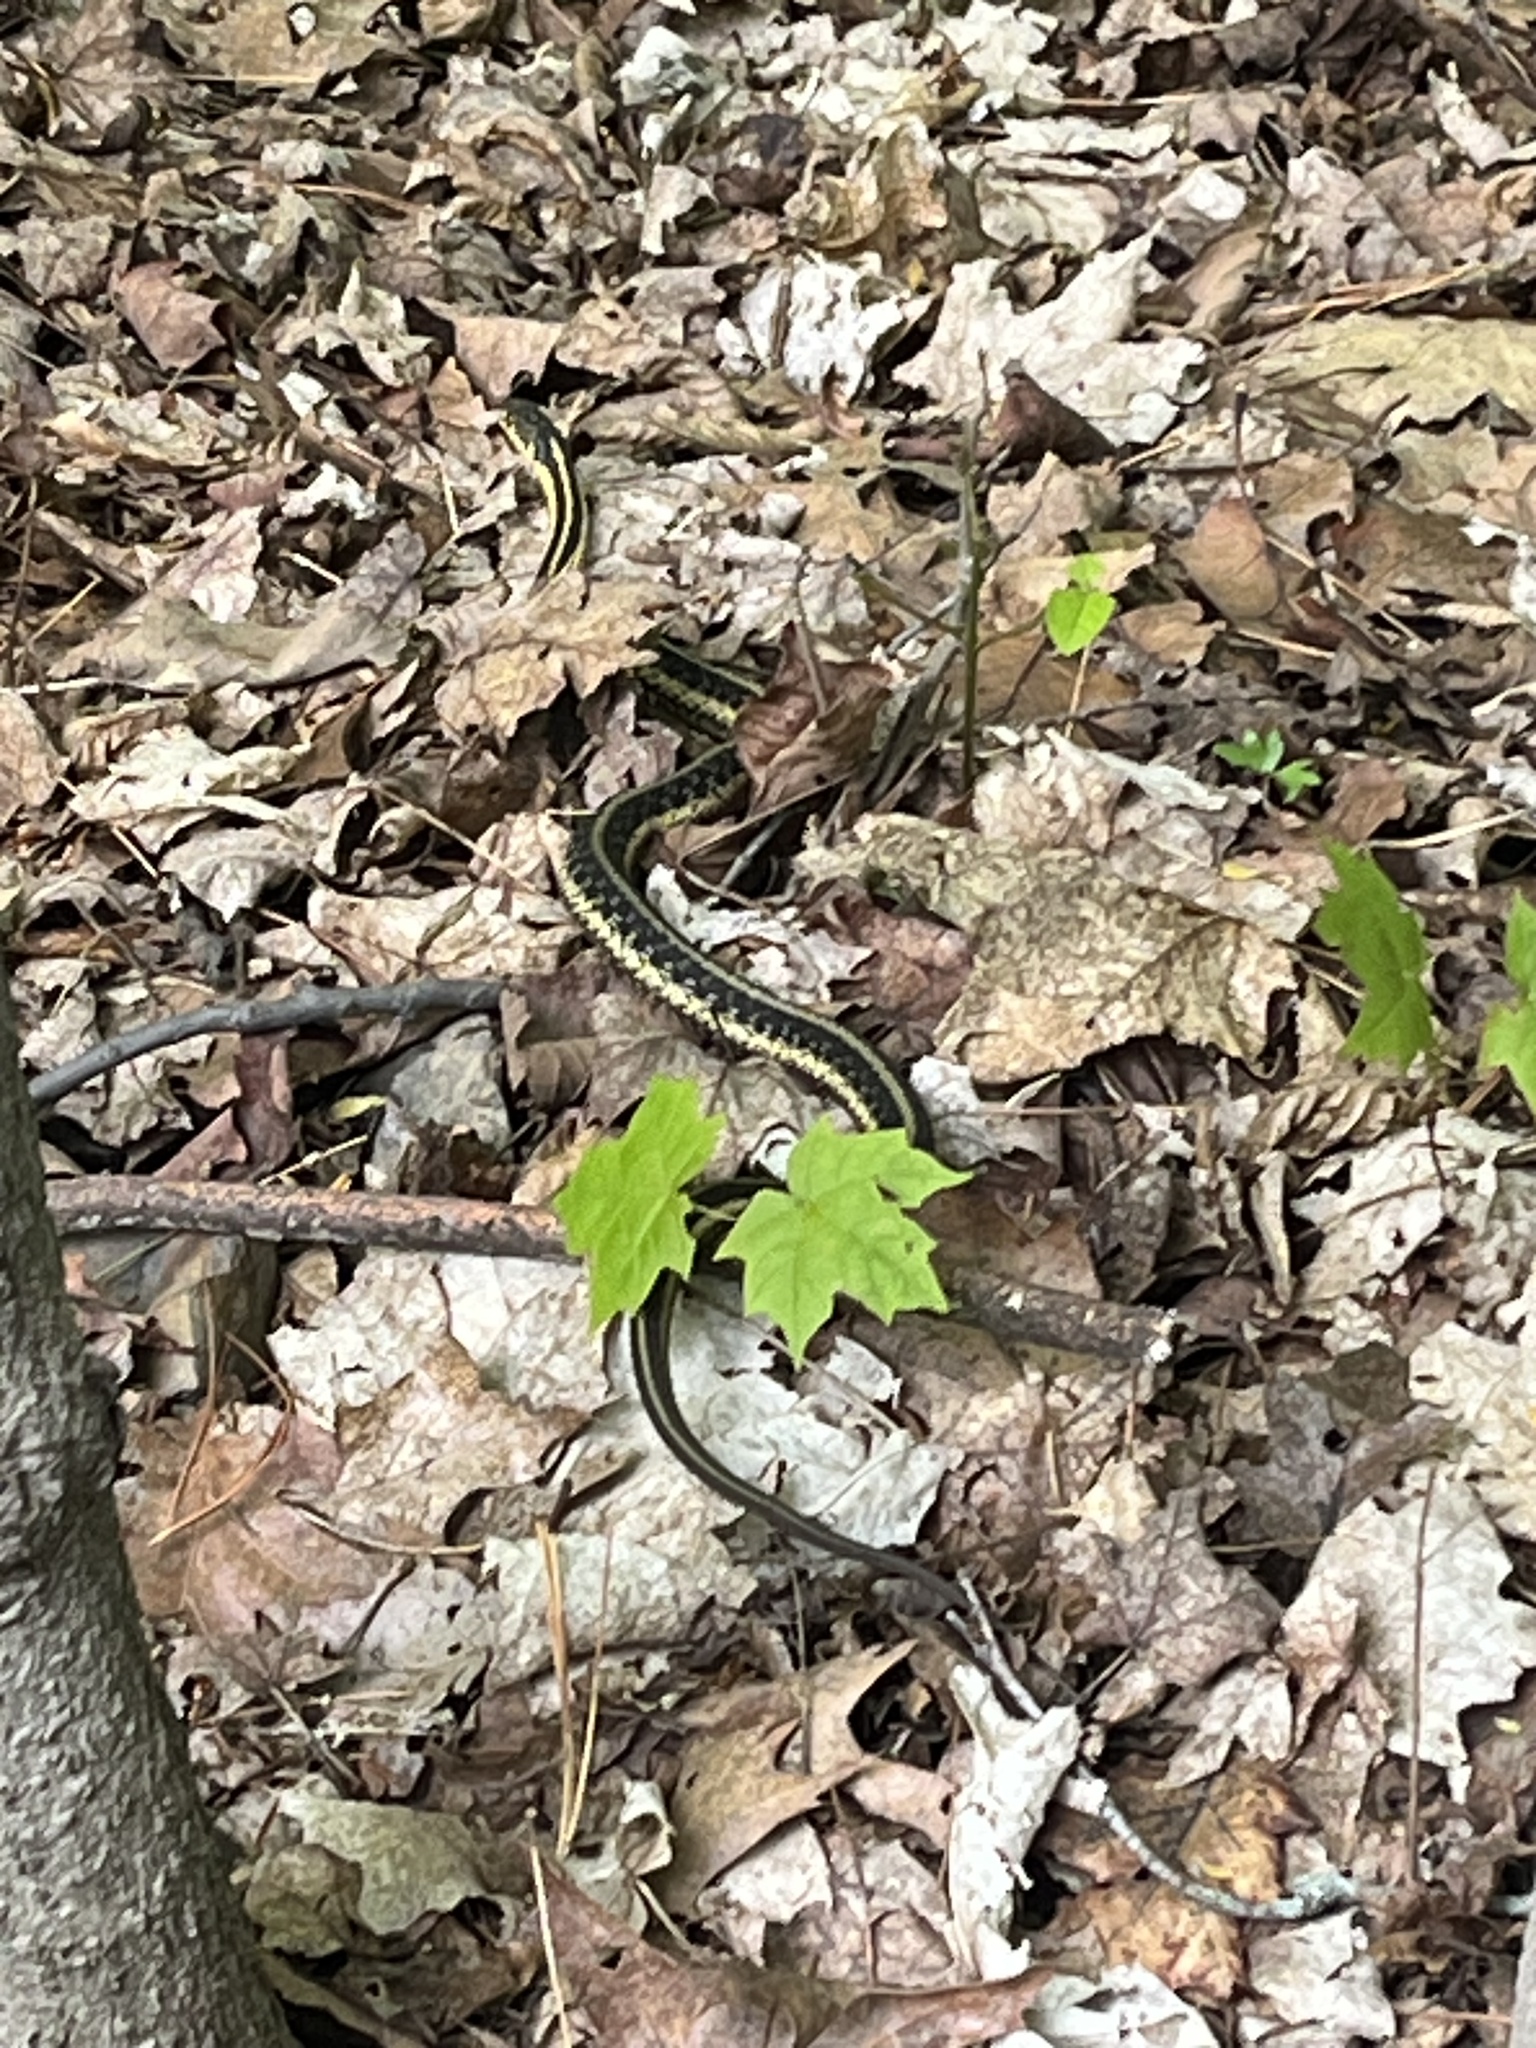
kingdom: Animalia
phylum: Chordata
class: Squamata
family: Colubridae
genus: Thamnophis
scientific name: Thamnophis sirtalis
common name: Common garter snake
